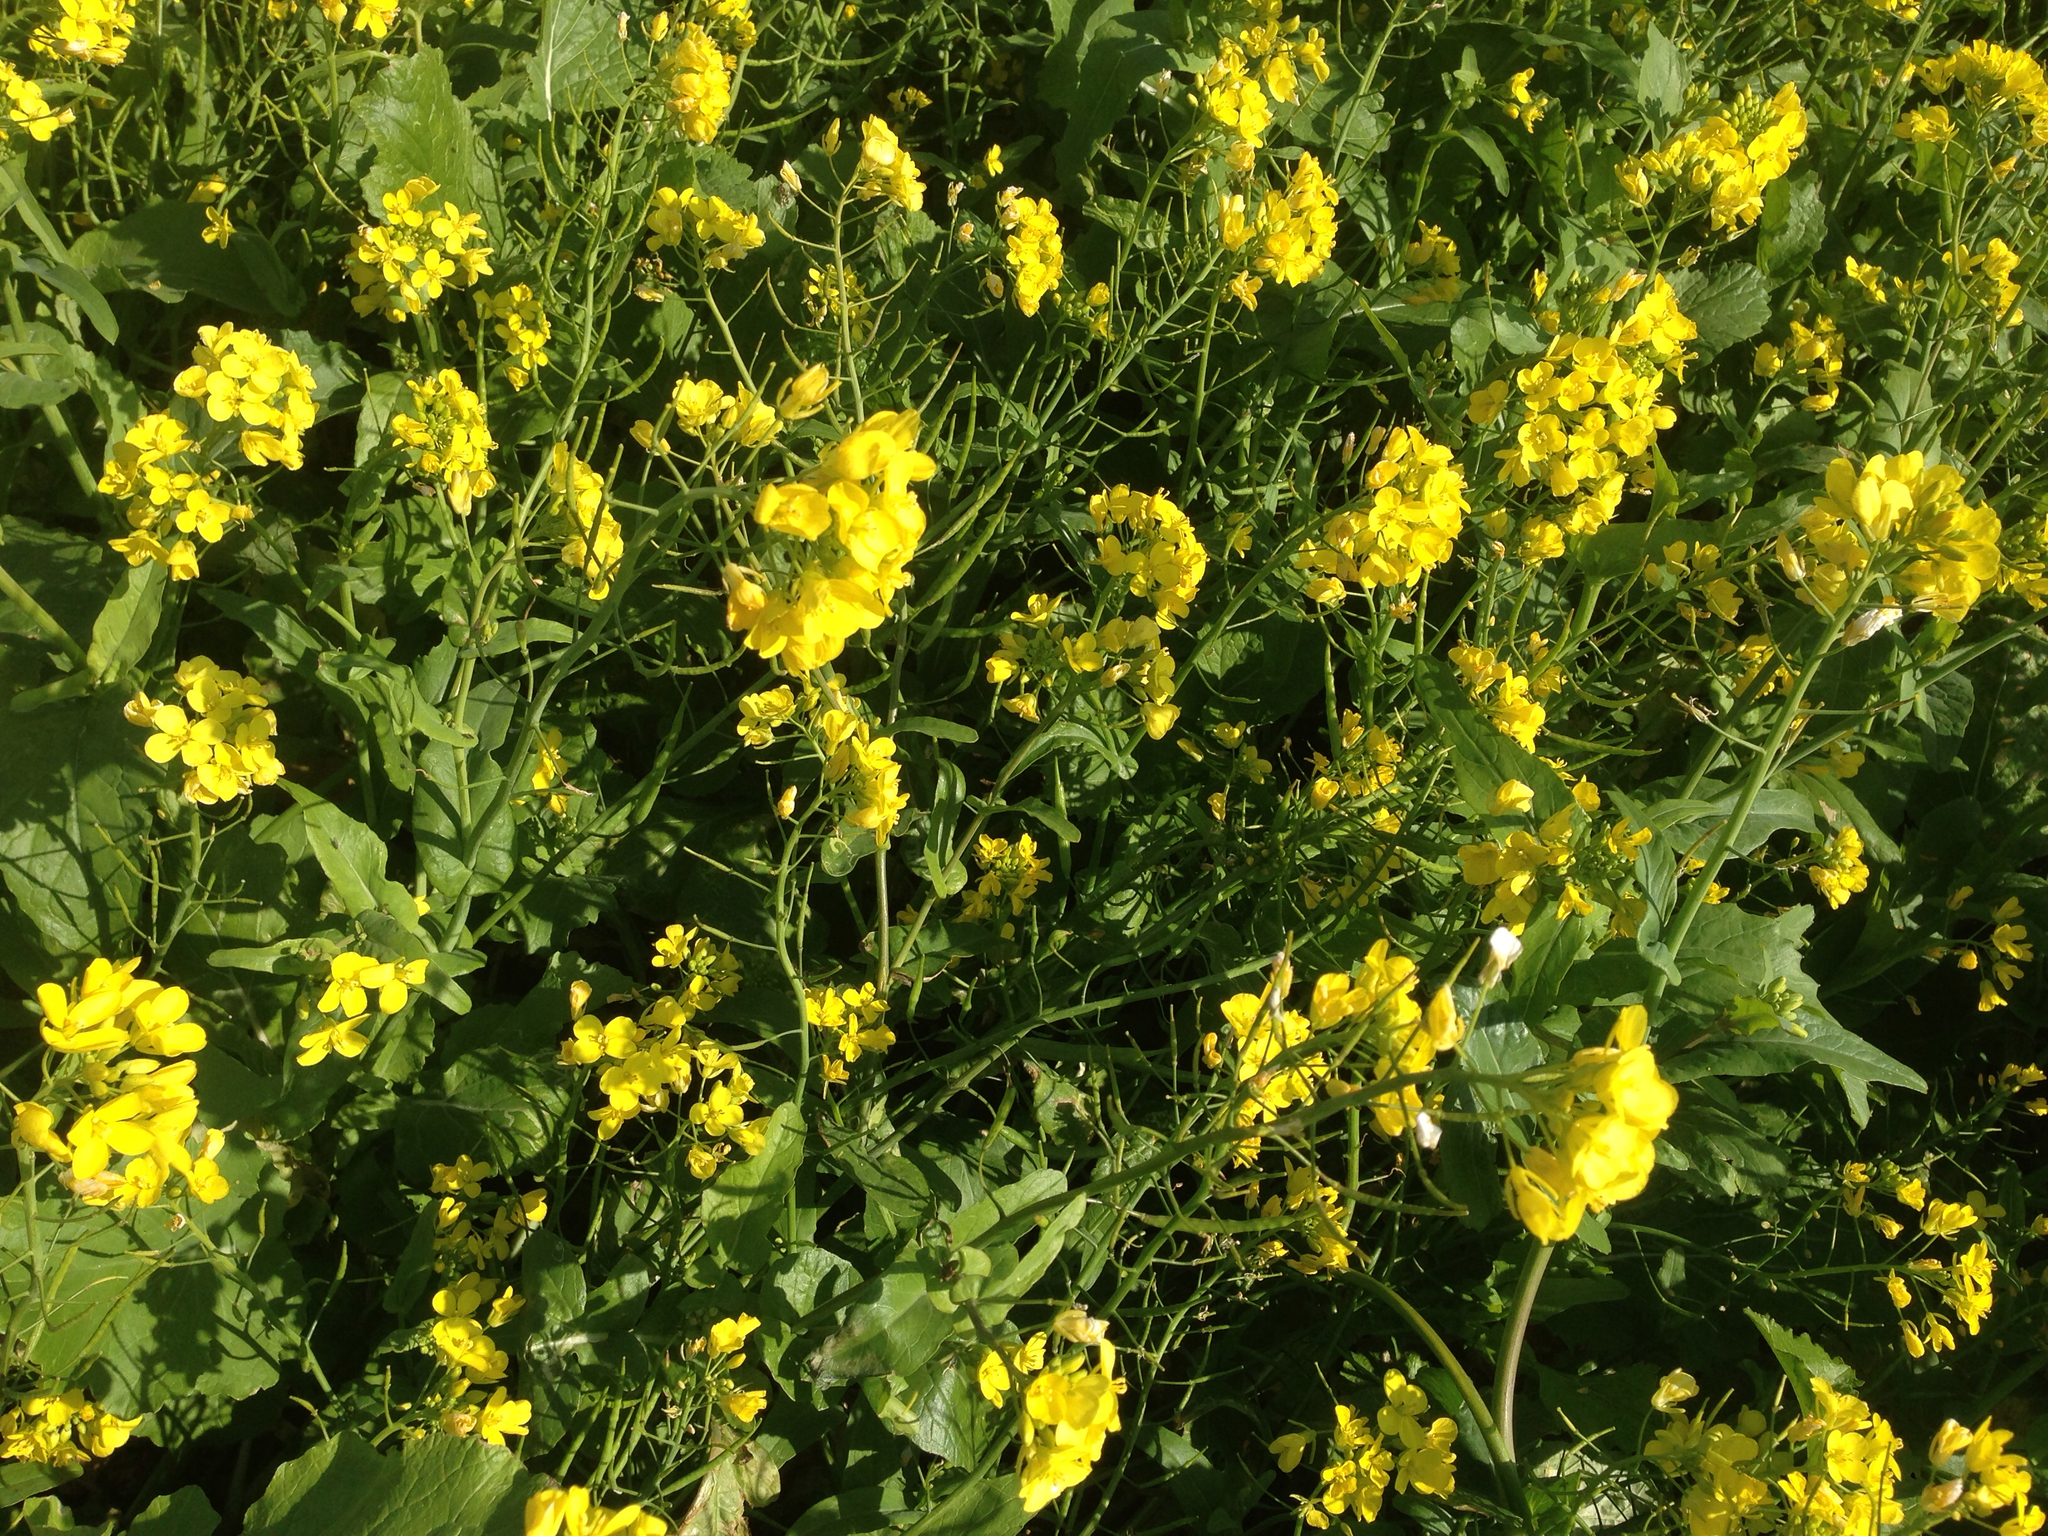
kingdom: Plantae
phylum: Tracheophyta
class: Magnoliopsida
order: Brassicales
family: Brassicaceae
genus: Brassica
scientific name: Brassica napus
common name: Rape
